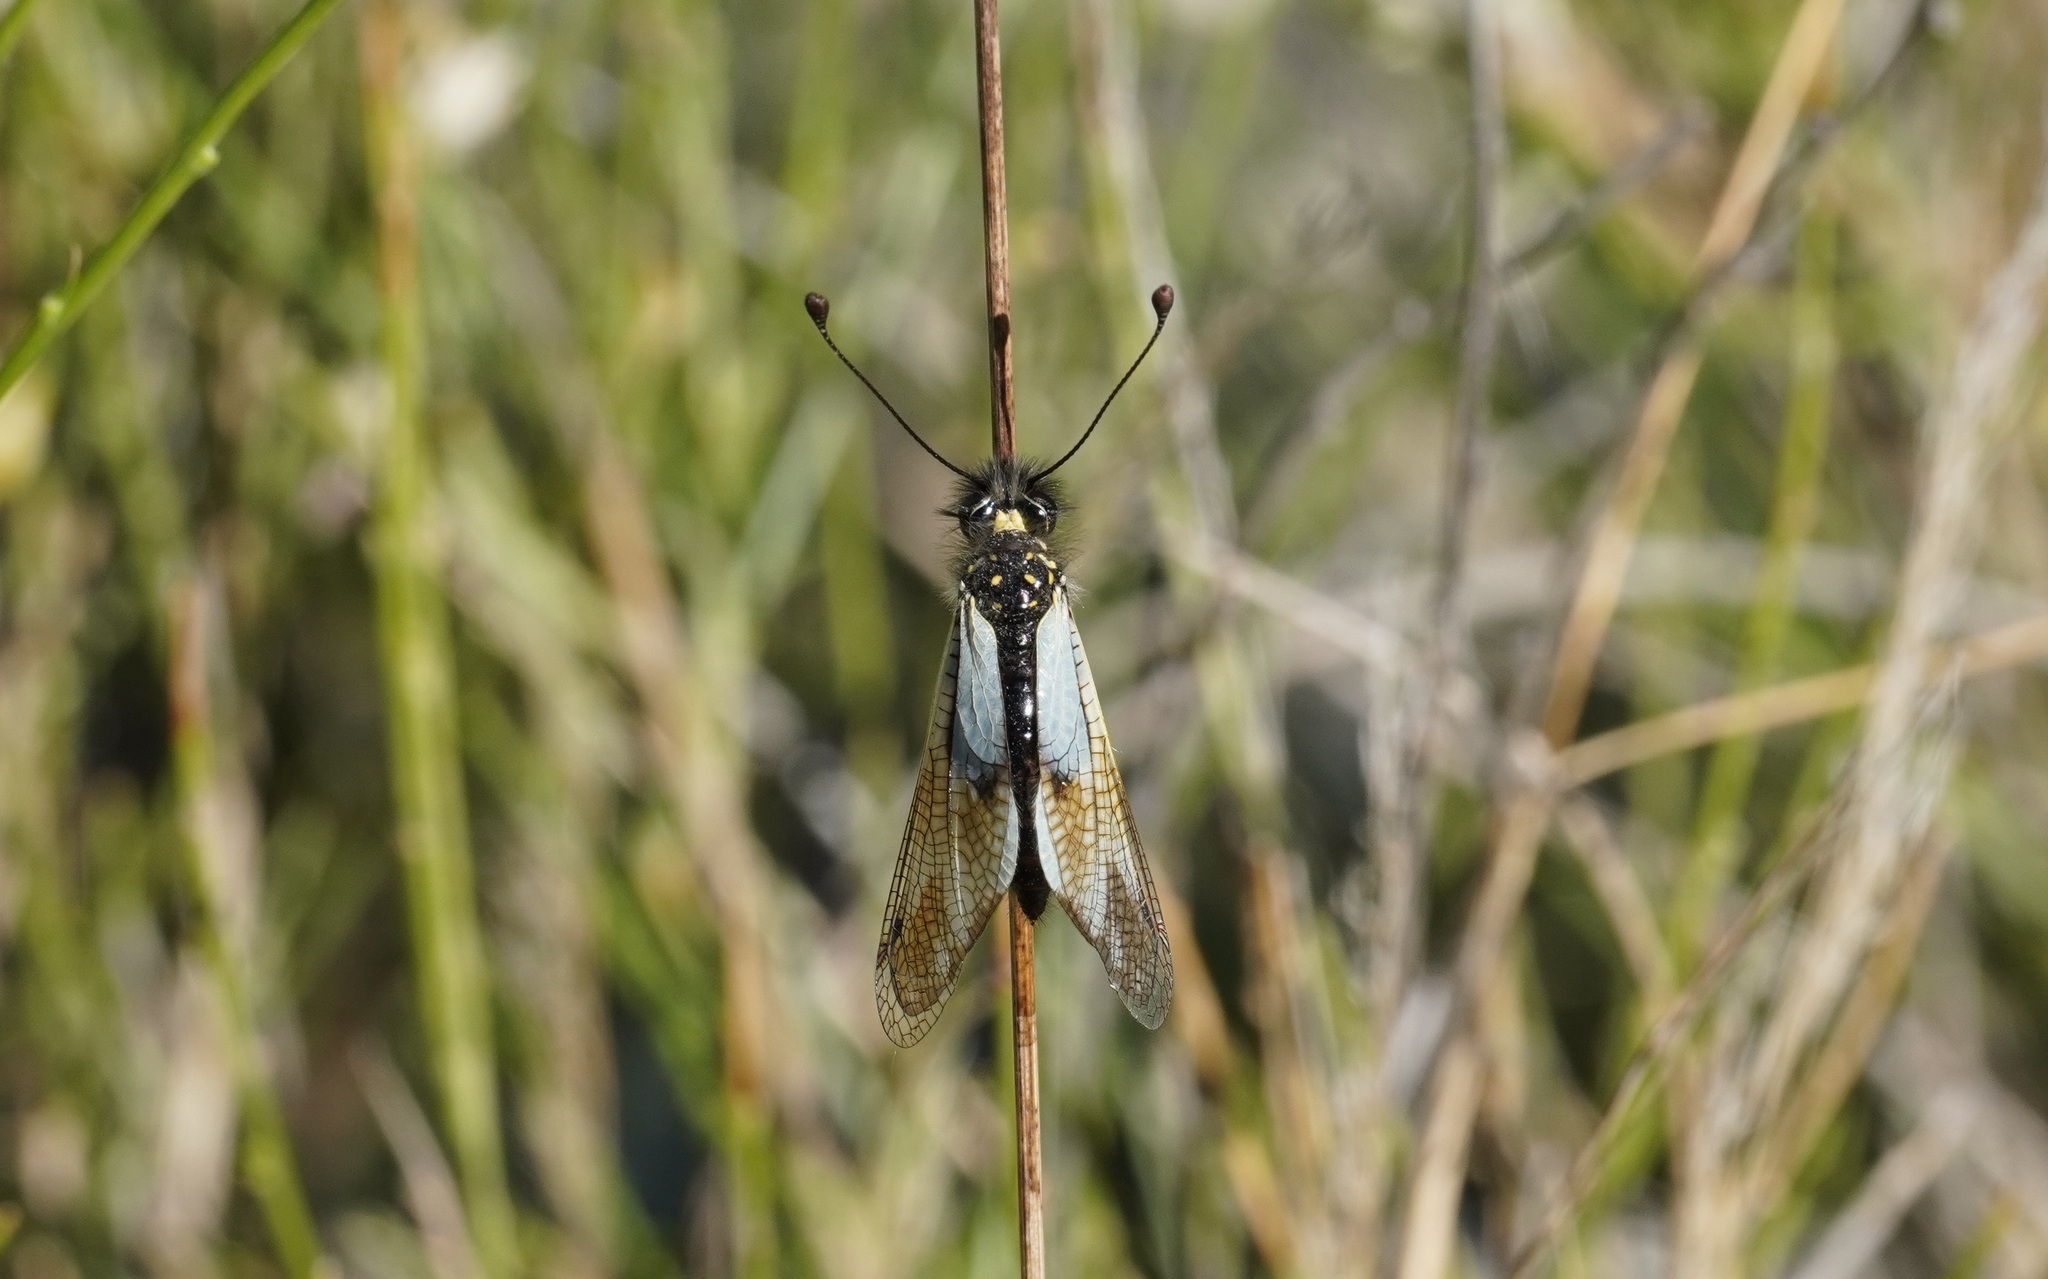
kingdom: Animalia
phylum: Arthropoda
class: Insecta
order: Neuroptera
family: Ascalaphidae
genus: Libelloides
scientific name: Libelloides lacteus
